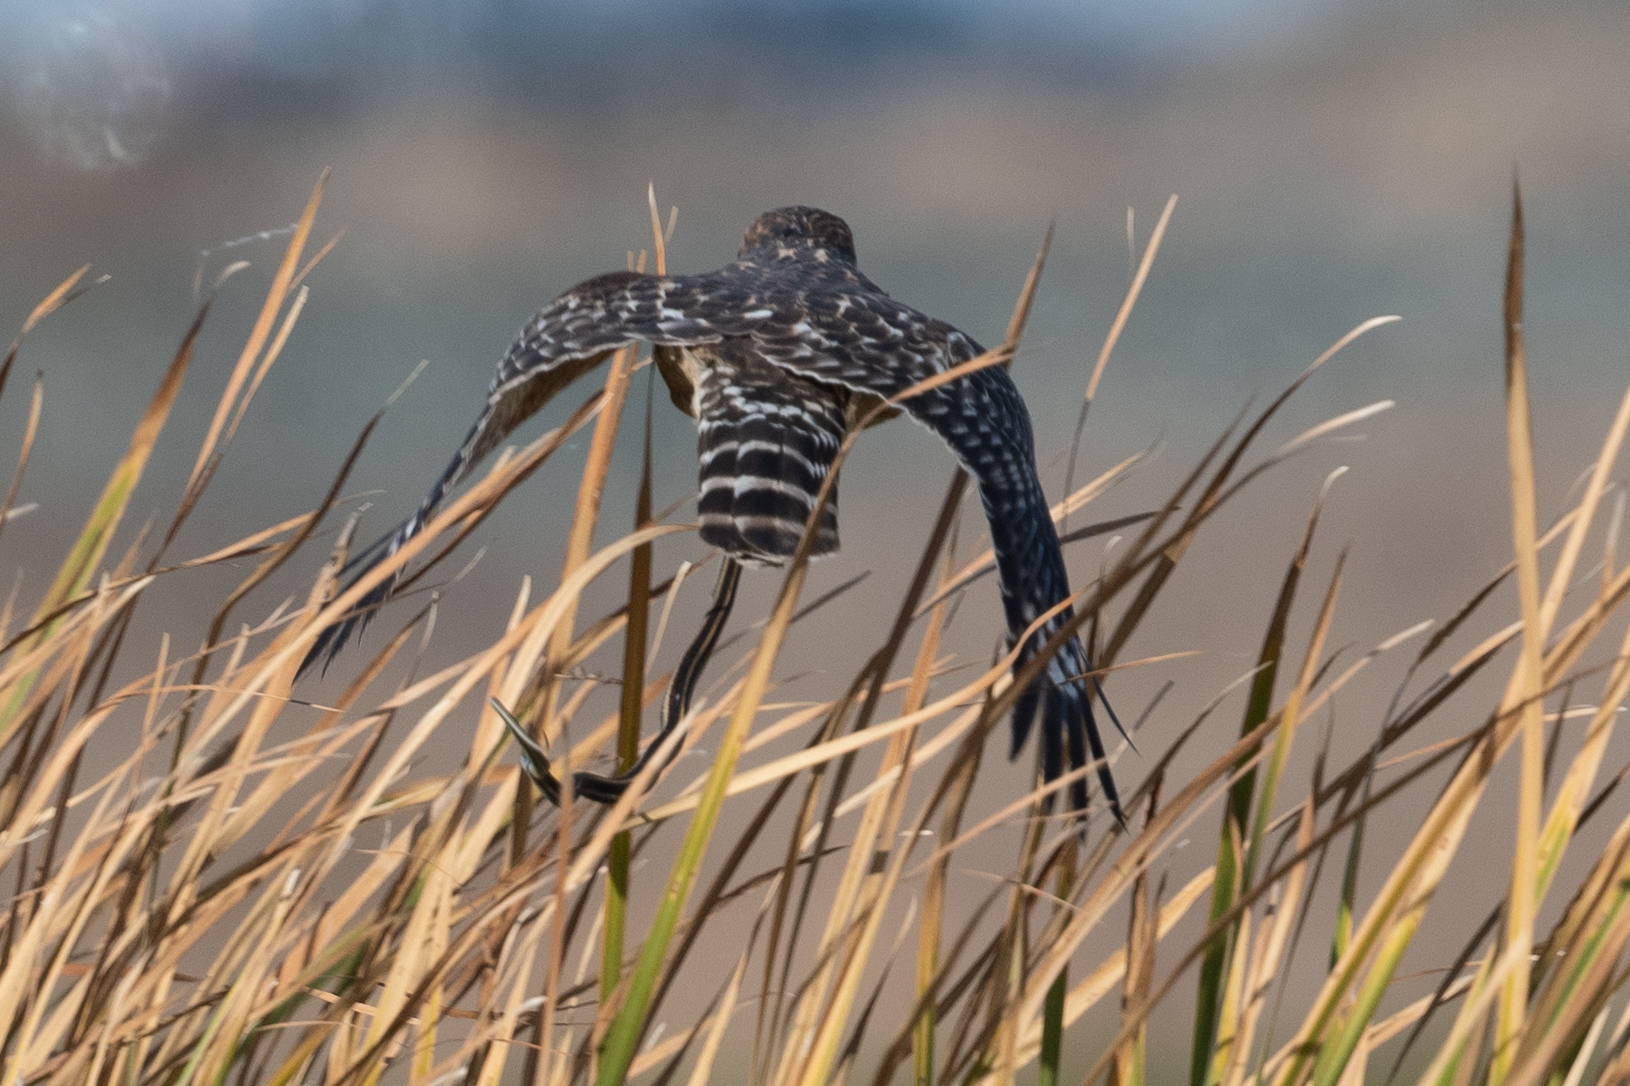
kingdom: Animalia
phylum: Chordata
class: Aves
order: Accipitriformes
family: Accipitridae
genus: Buteo
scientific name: Buteo lineatus
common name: Red-shouldered hawk
